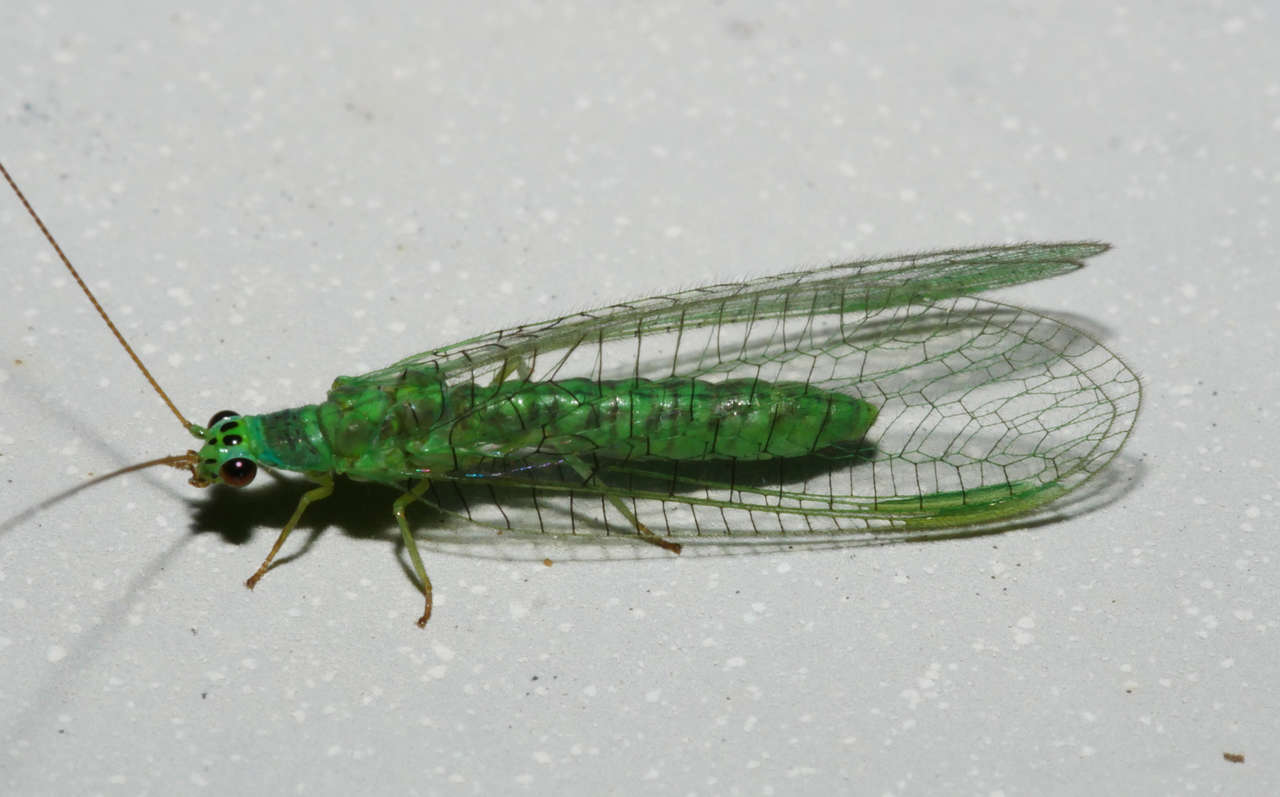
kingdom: Animalia
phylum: Arthropoda
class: Insecta
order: Neuroptera
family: Chrysopidae
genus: Mallada
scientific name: Mallada tripunctatus
